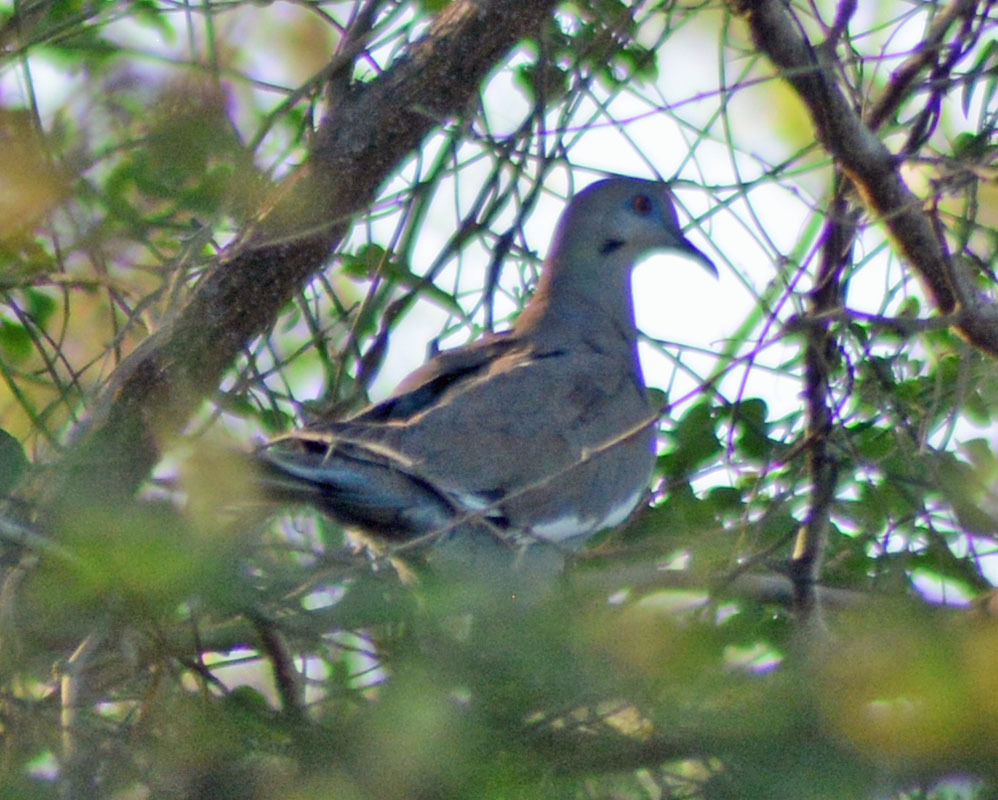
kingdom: Animalia
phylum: Chordata
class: Aves
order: Columbiformes
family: Columbidae
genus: Zenaida
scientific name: Zenaida asiatica
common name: White-winged dove
